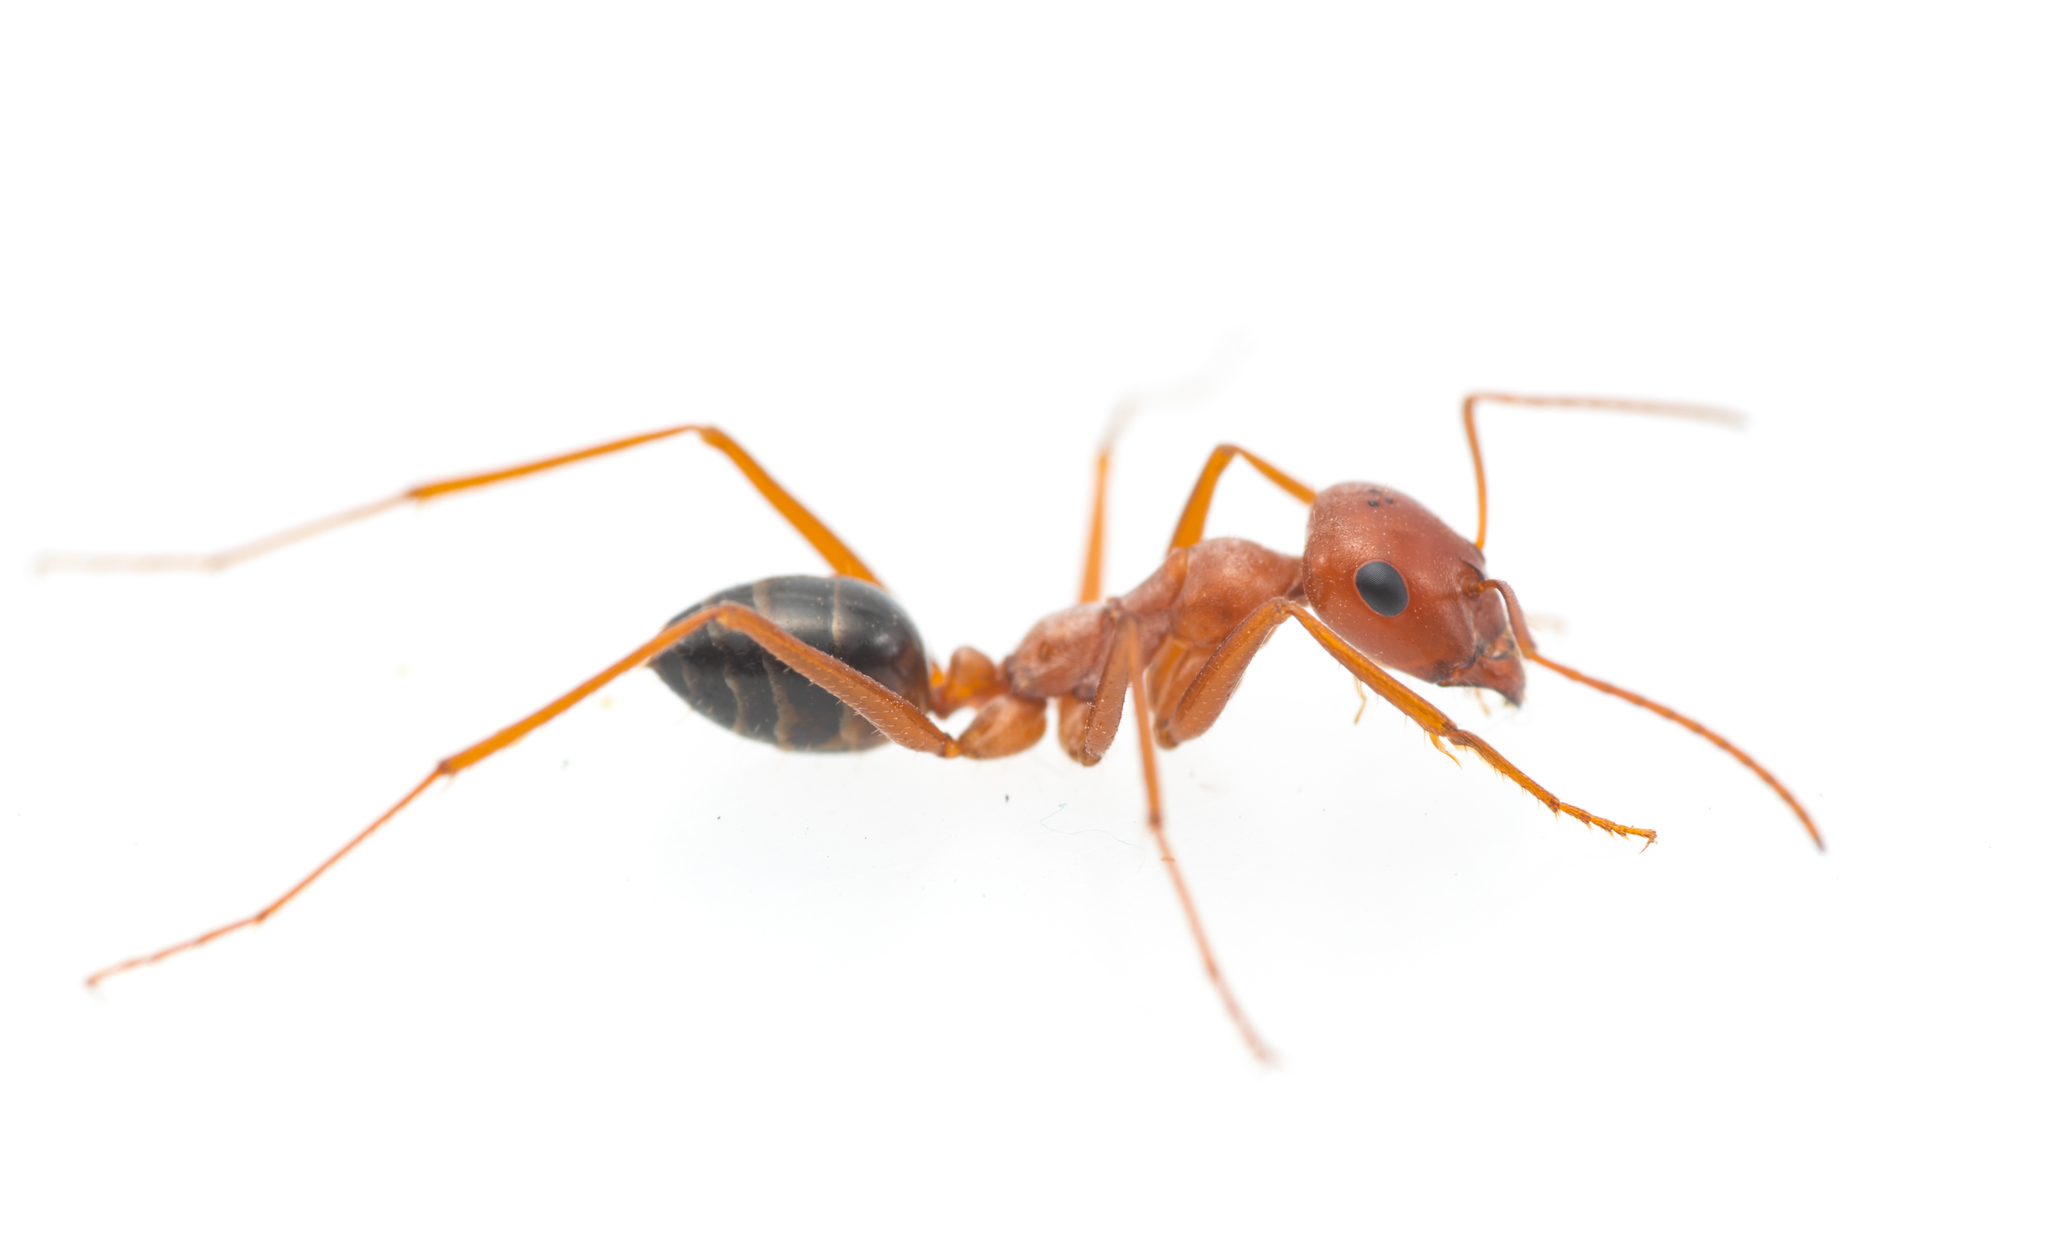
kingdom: Animalia
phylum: Arthropoda
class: Insecta
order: Hymenoptera
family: Formicidae
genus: Cataglyphis
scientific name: Cataglyphis rosenhaueri
